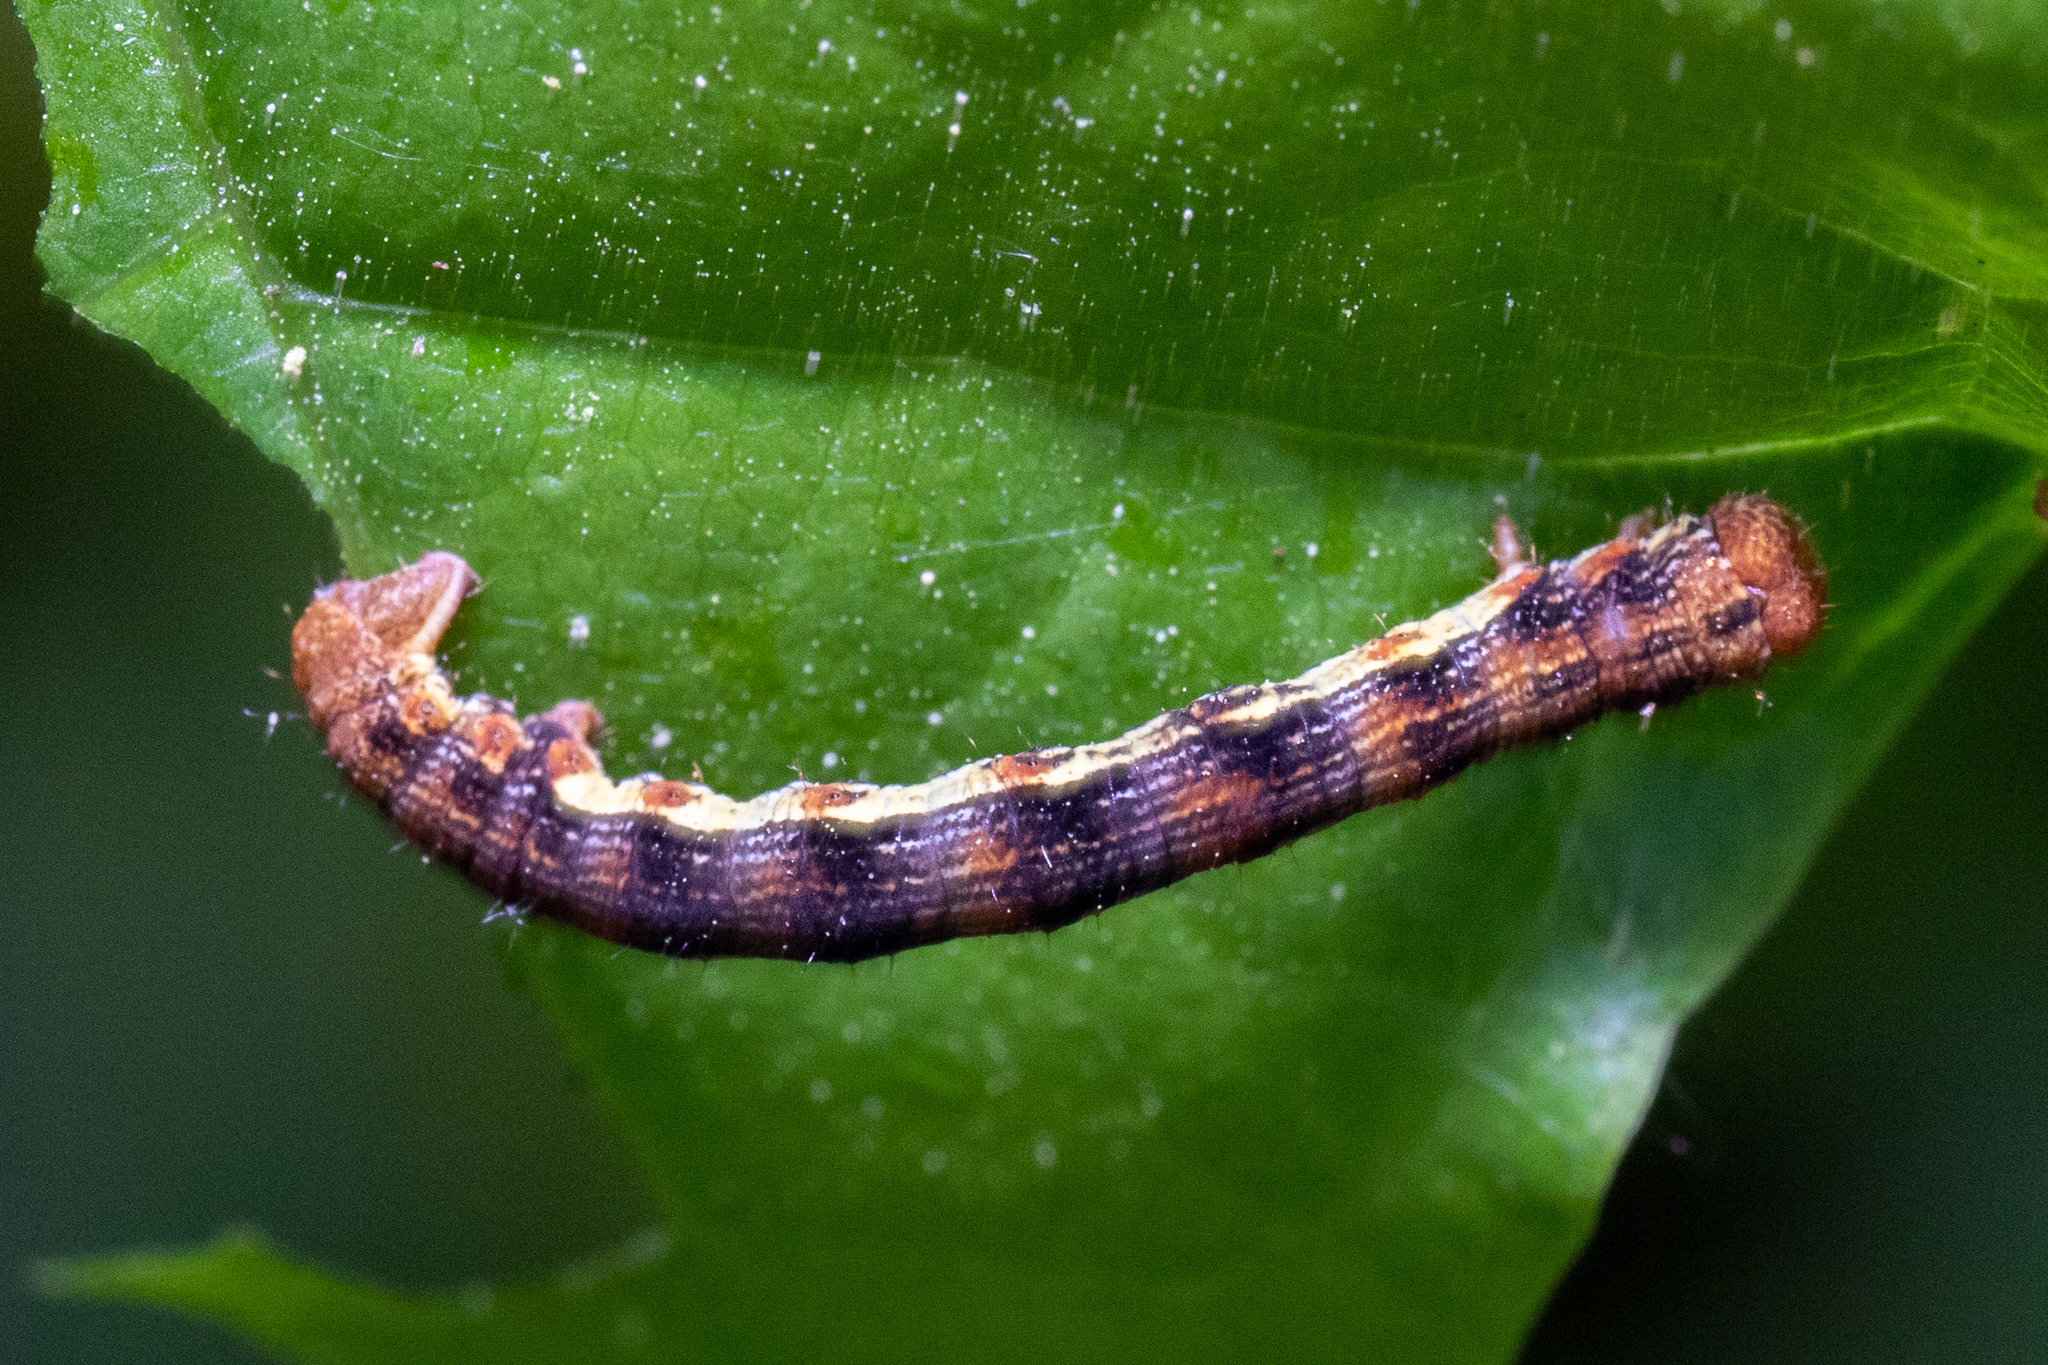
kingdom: Animalia
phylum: Arthropoda
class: Insecta
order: Lepidoptera
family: Geometridae
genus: Erannis
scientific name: Erannis defoliaria
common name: Mottled umber
